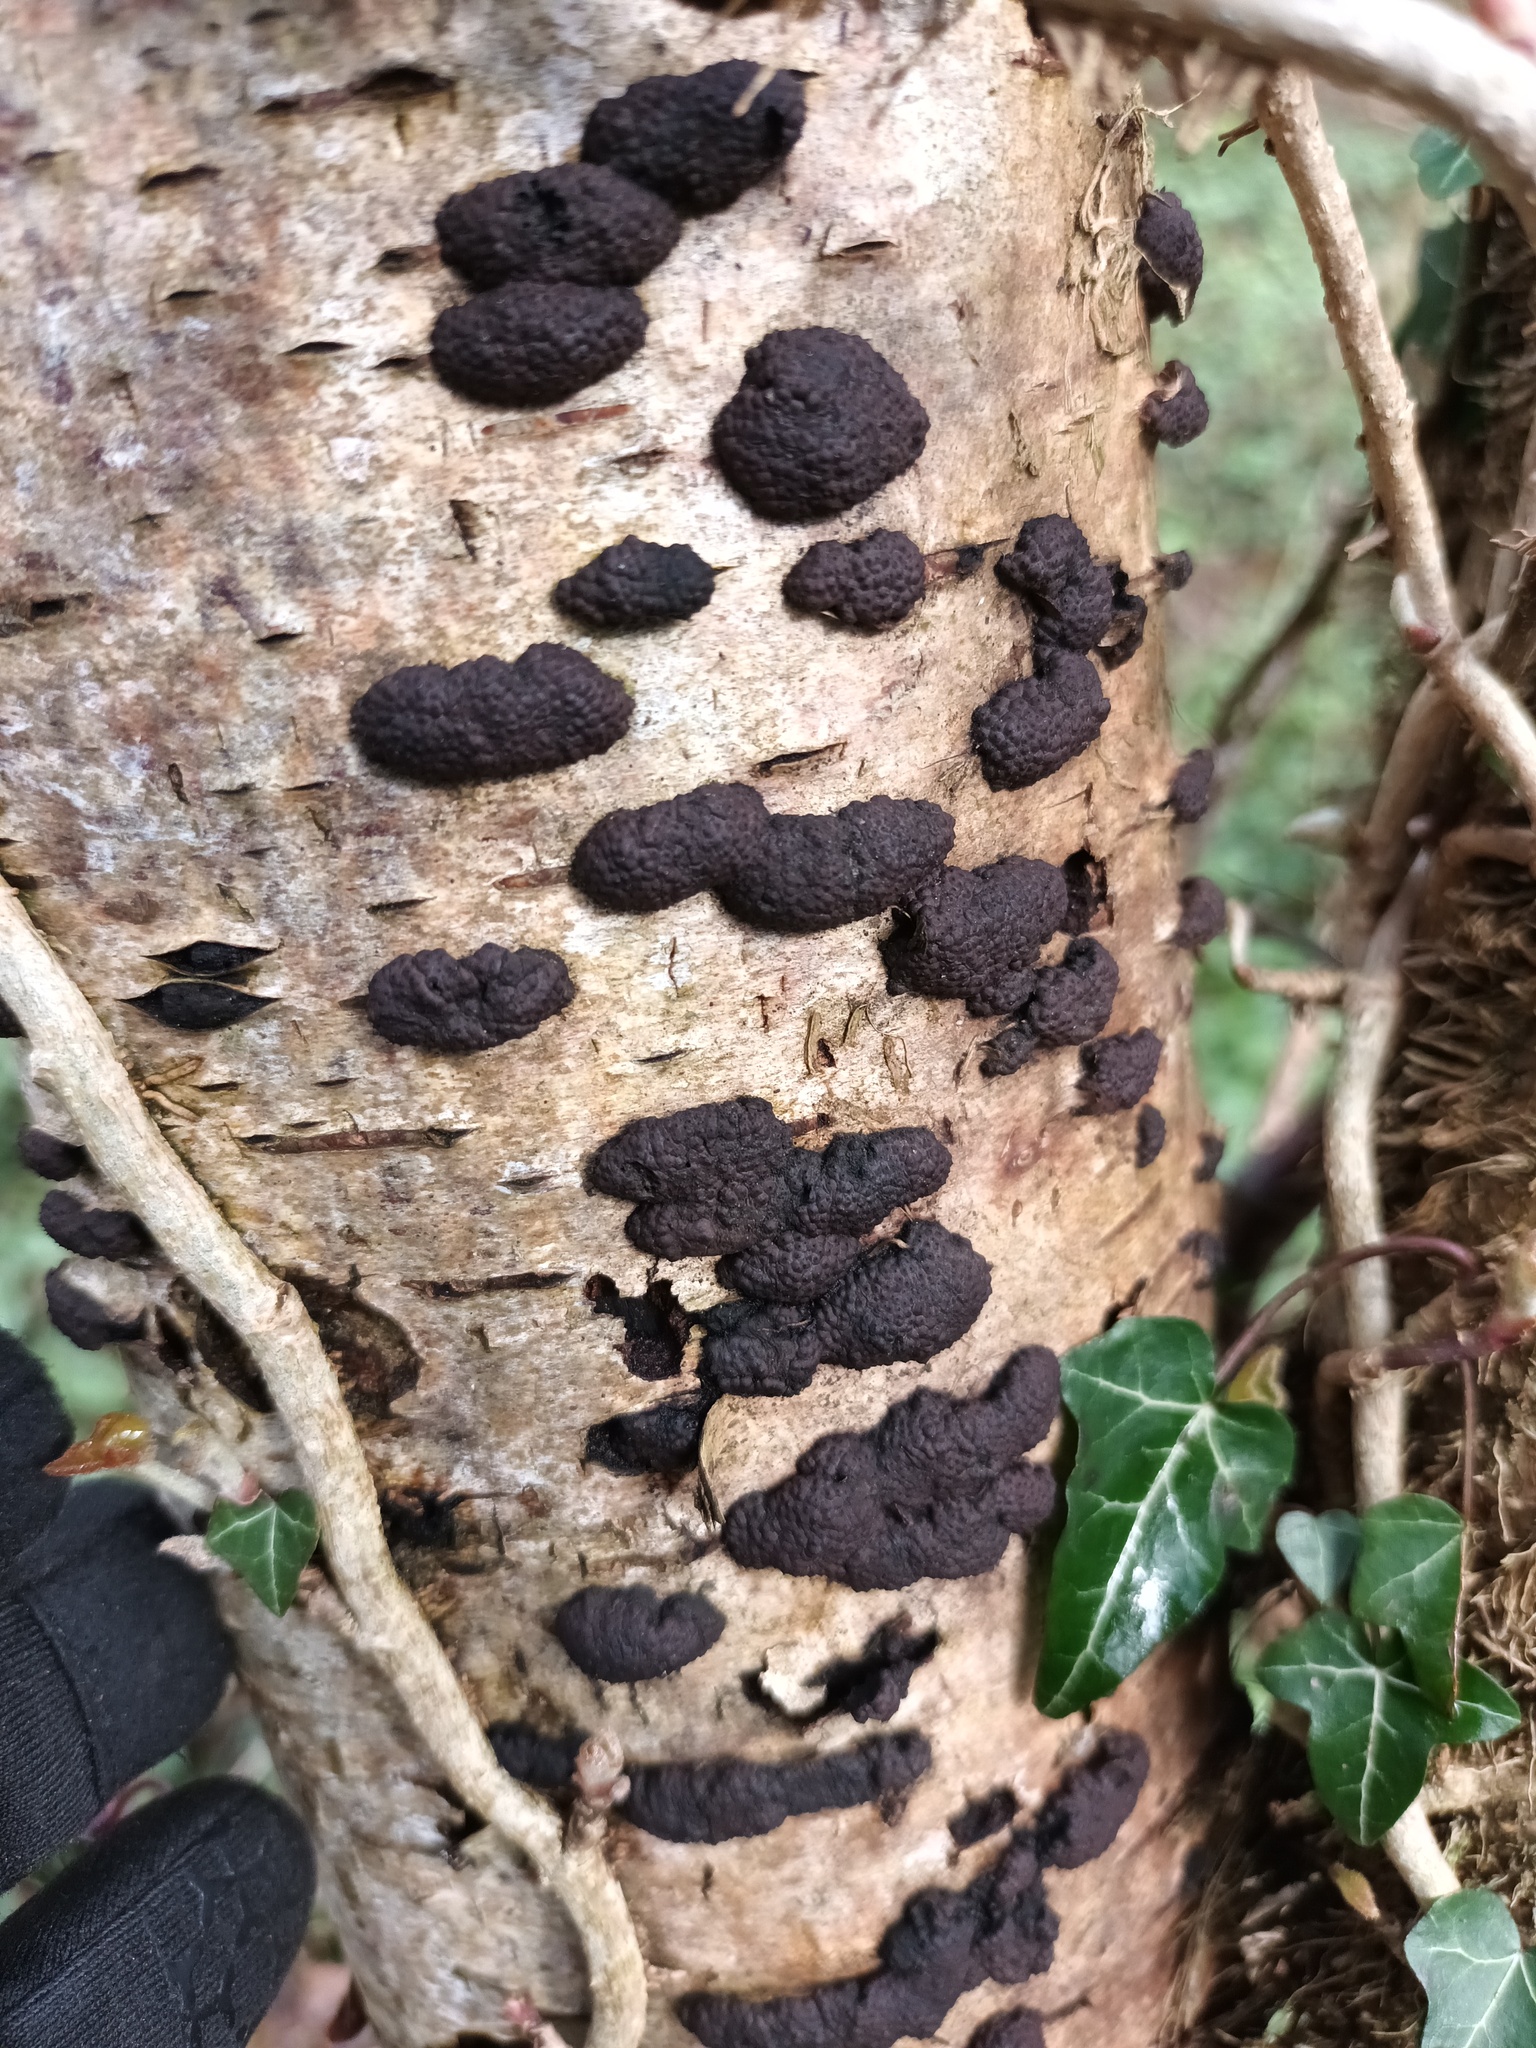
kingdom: Fungi
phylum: Ascomycota
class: Sordariomycetes
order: Xylariales
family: Hypoxylaceae
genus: Jackrogersella
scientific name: Jackrogersella multiformis
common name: Birch woodwart
